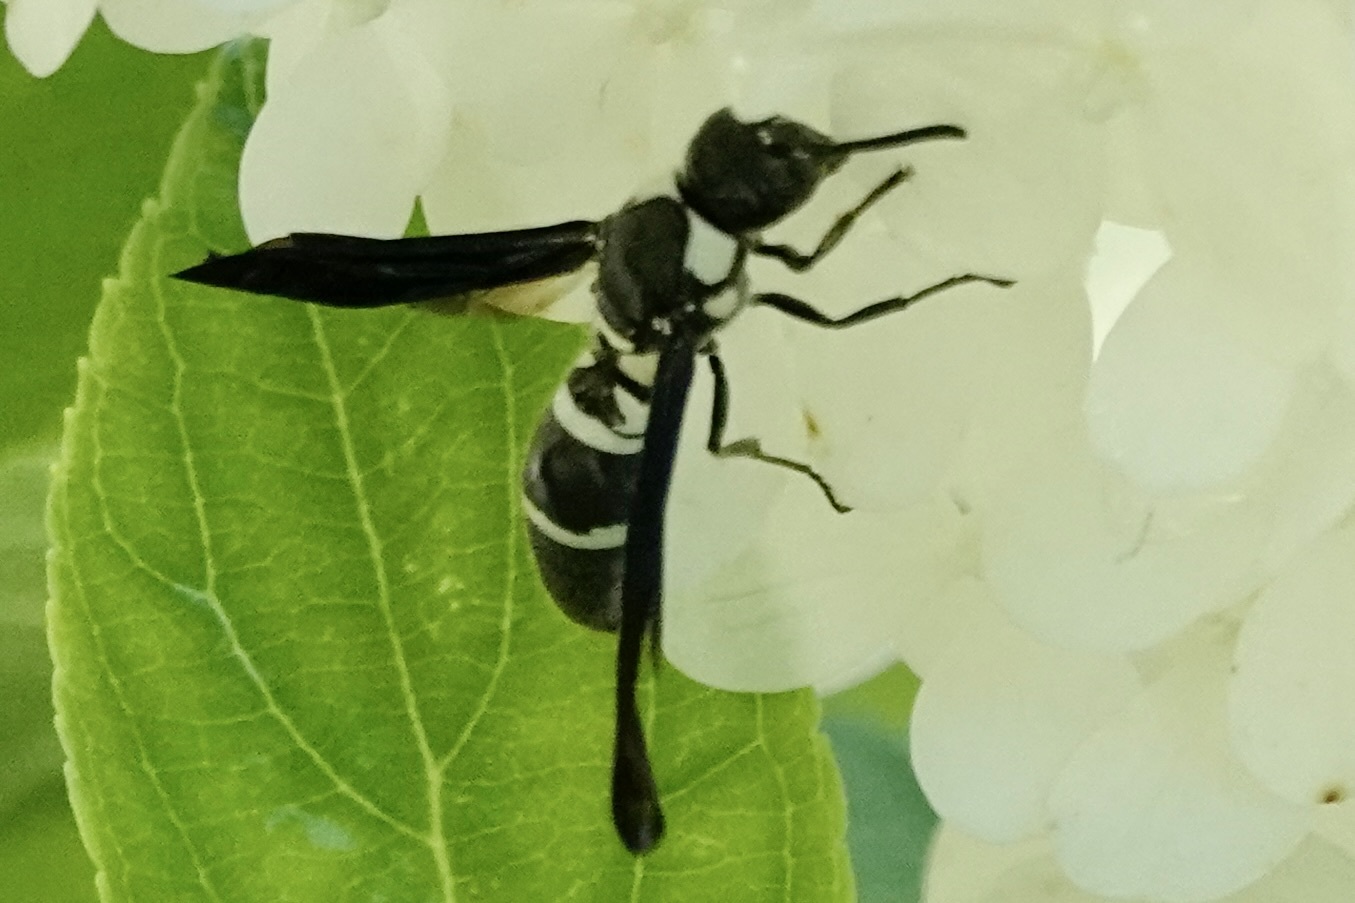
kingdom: Animalia
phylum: Arthropoda
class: Insecta
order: Hymenoptera
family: Eumenidae
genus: Pseudodynerus
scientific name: Pseudodynerus quadrisectus
